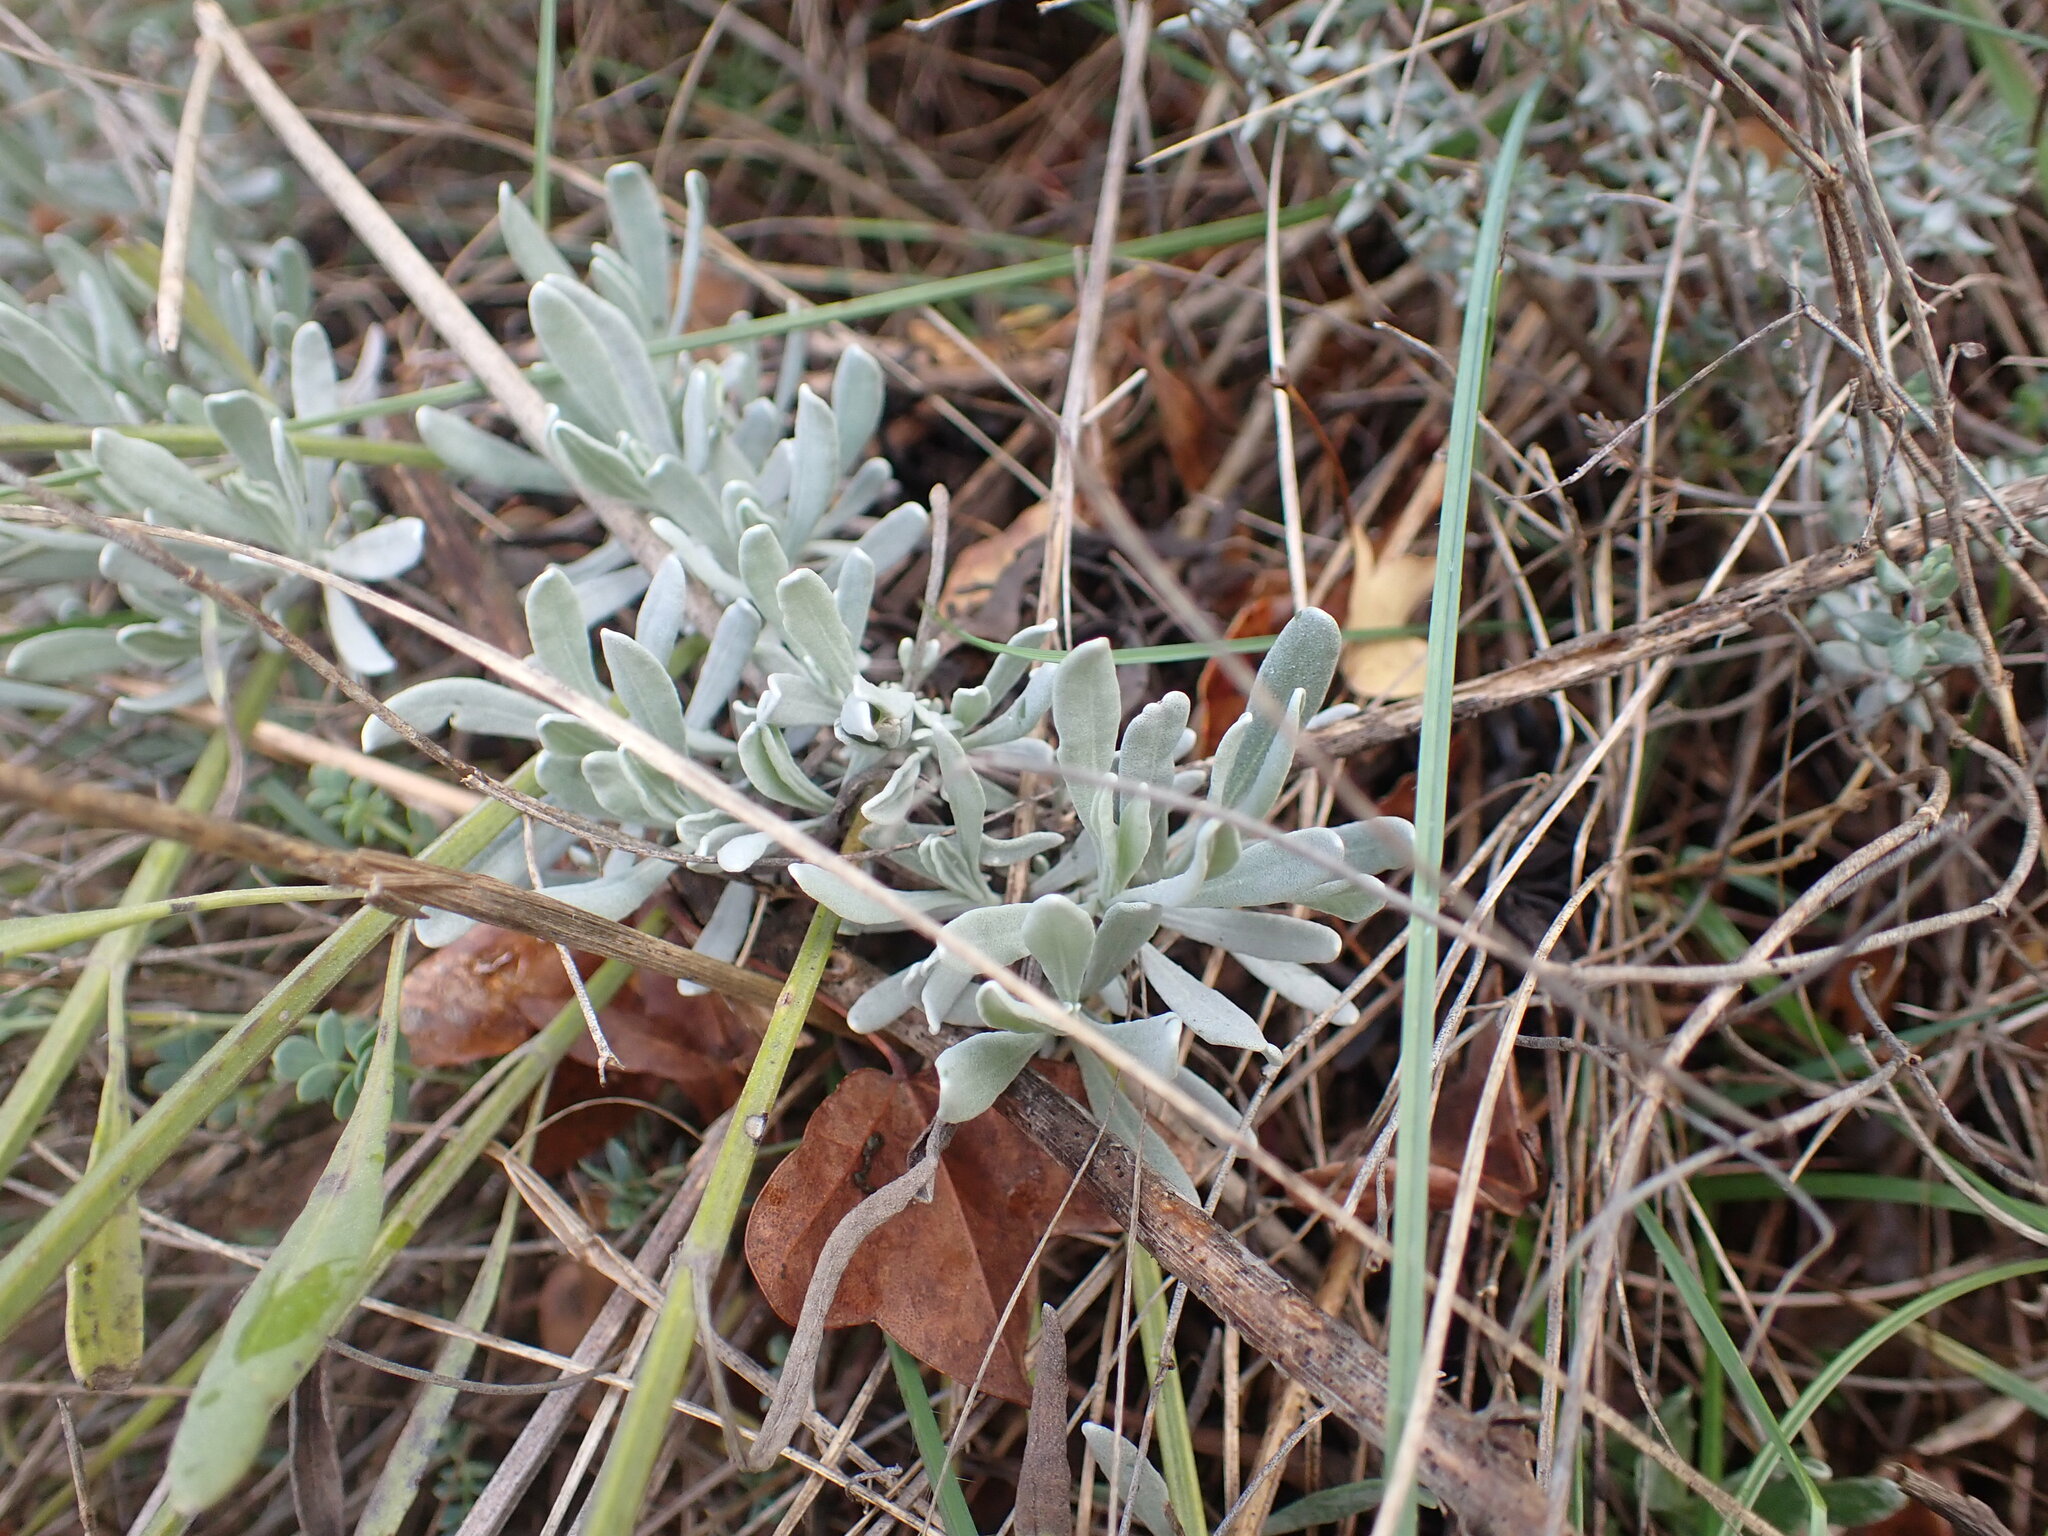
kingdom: Plantae
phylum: Tracheophyta
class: Magnoliopsida
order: Lamiales
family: Lamiaceae
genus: Lavandula
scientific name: Lavandula latifolia
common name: Spike lavendar
